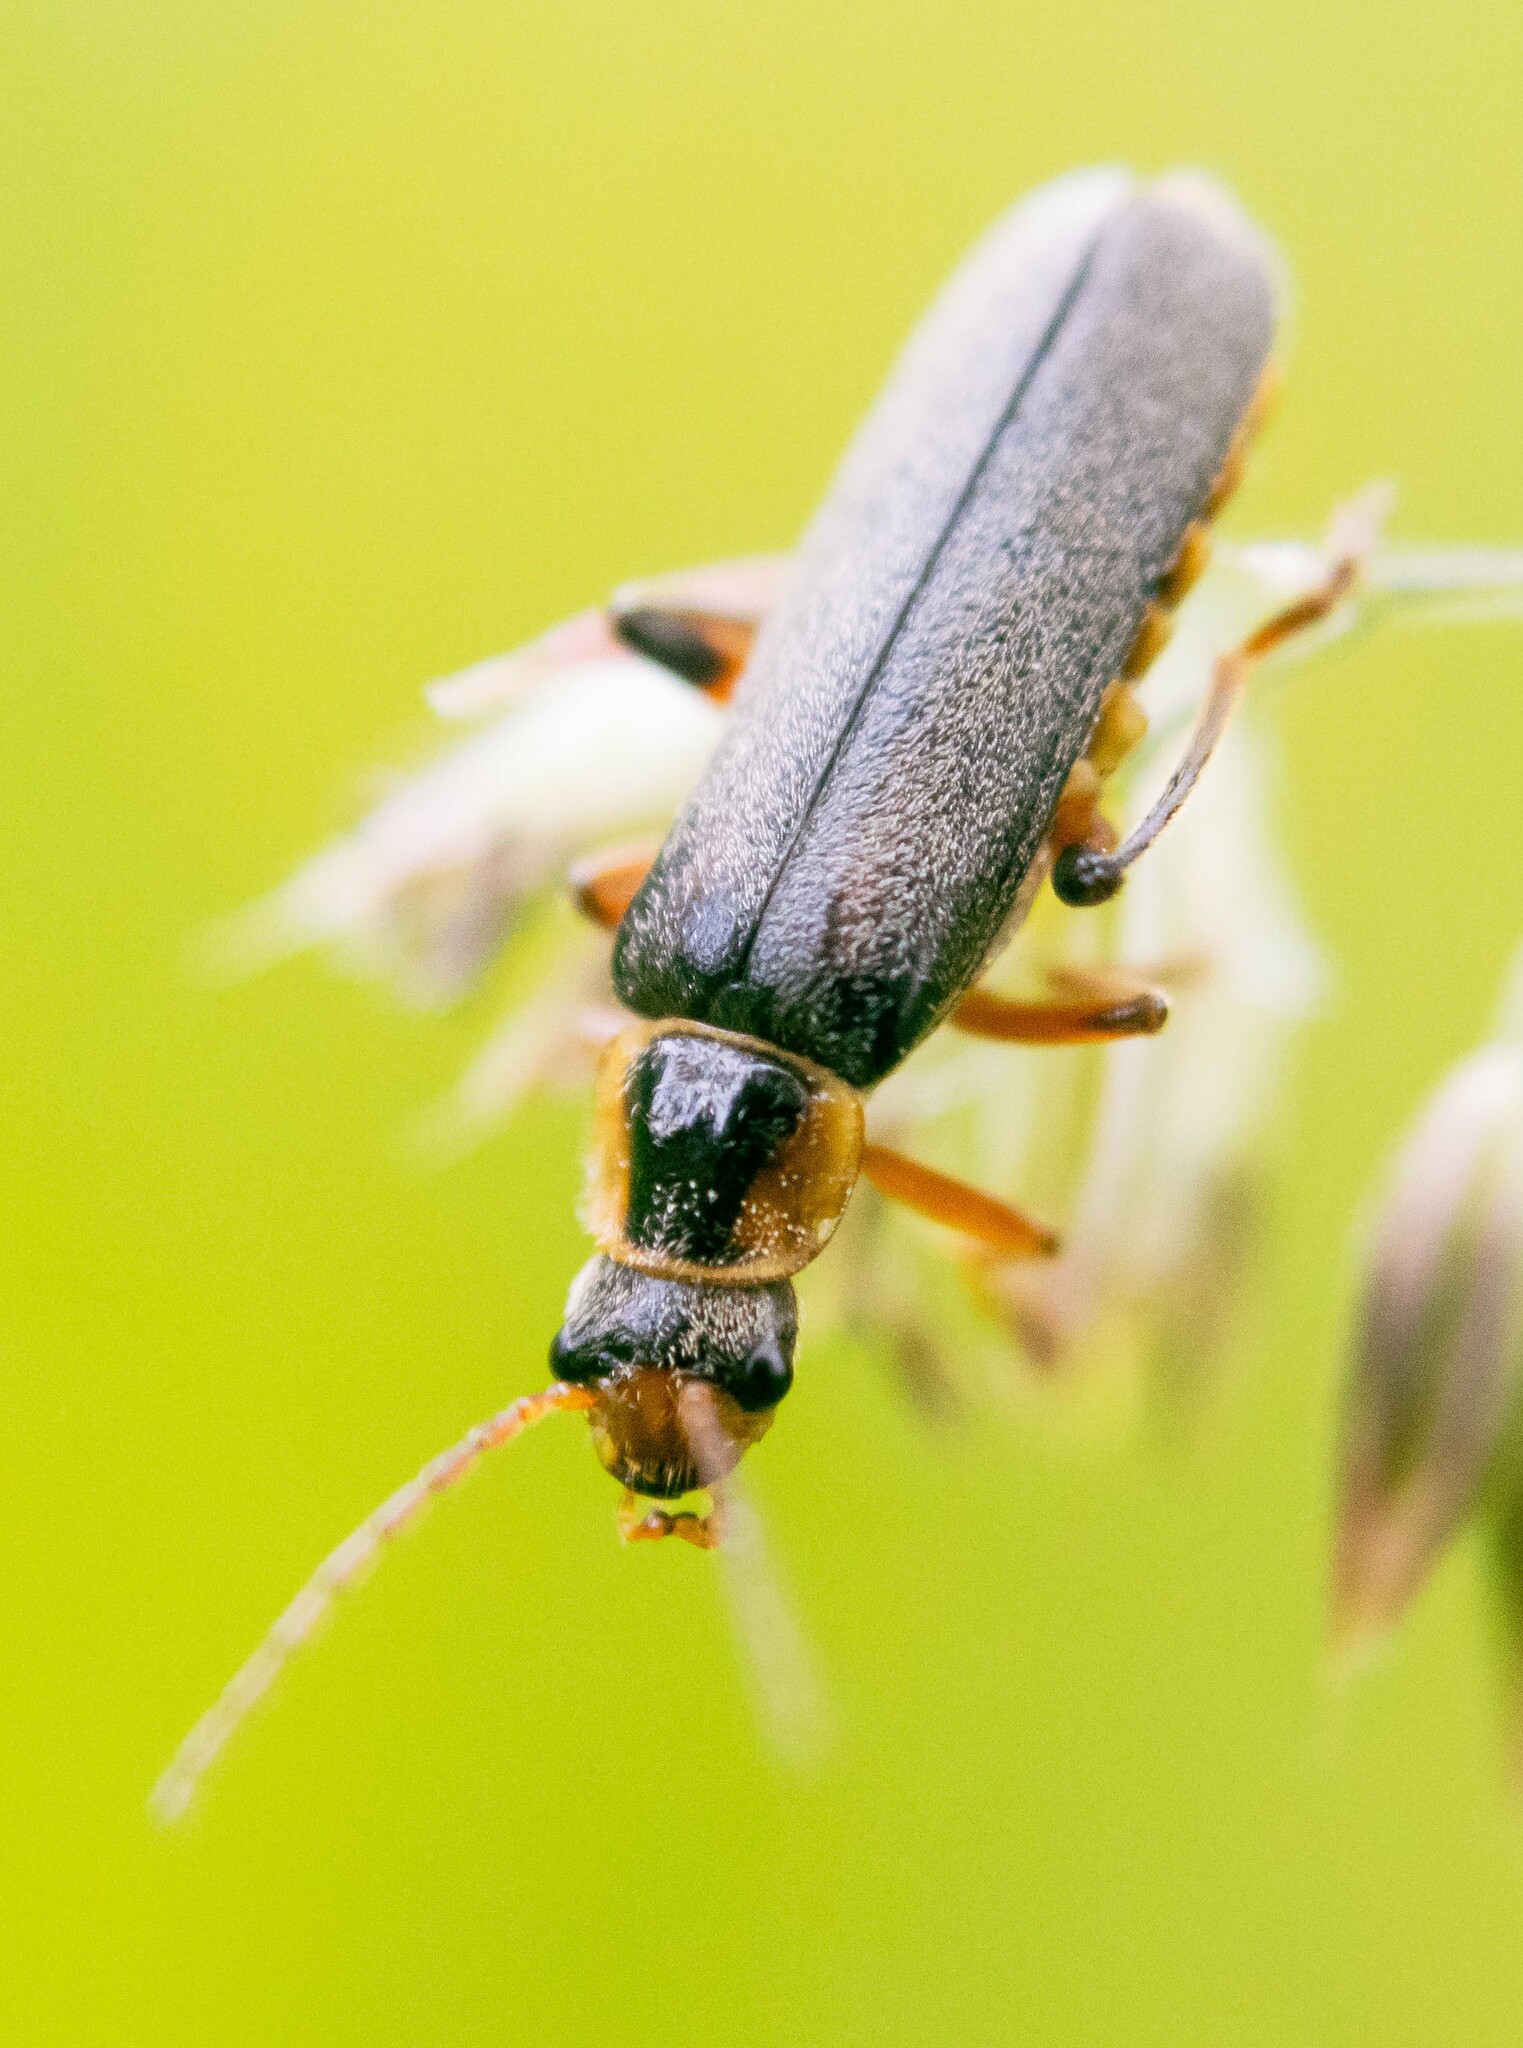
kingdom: Animalia
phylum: Arthropoda
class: Insecta
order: Coleoptera
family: Cantharidae
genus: Cantharis
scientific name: Cantharis nigricans
